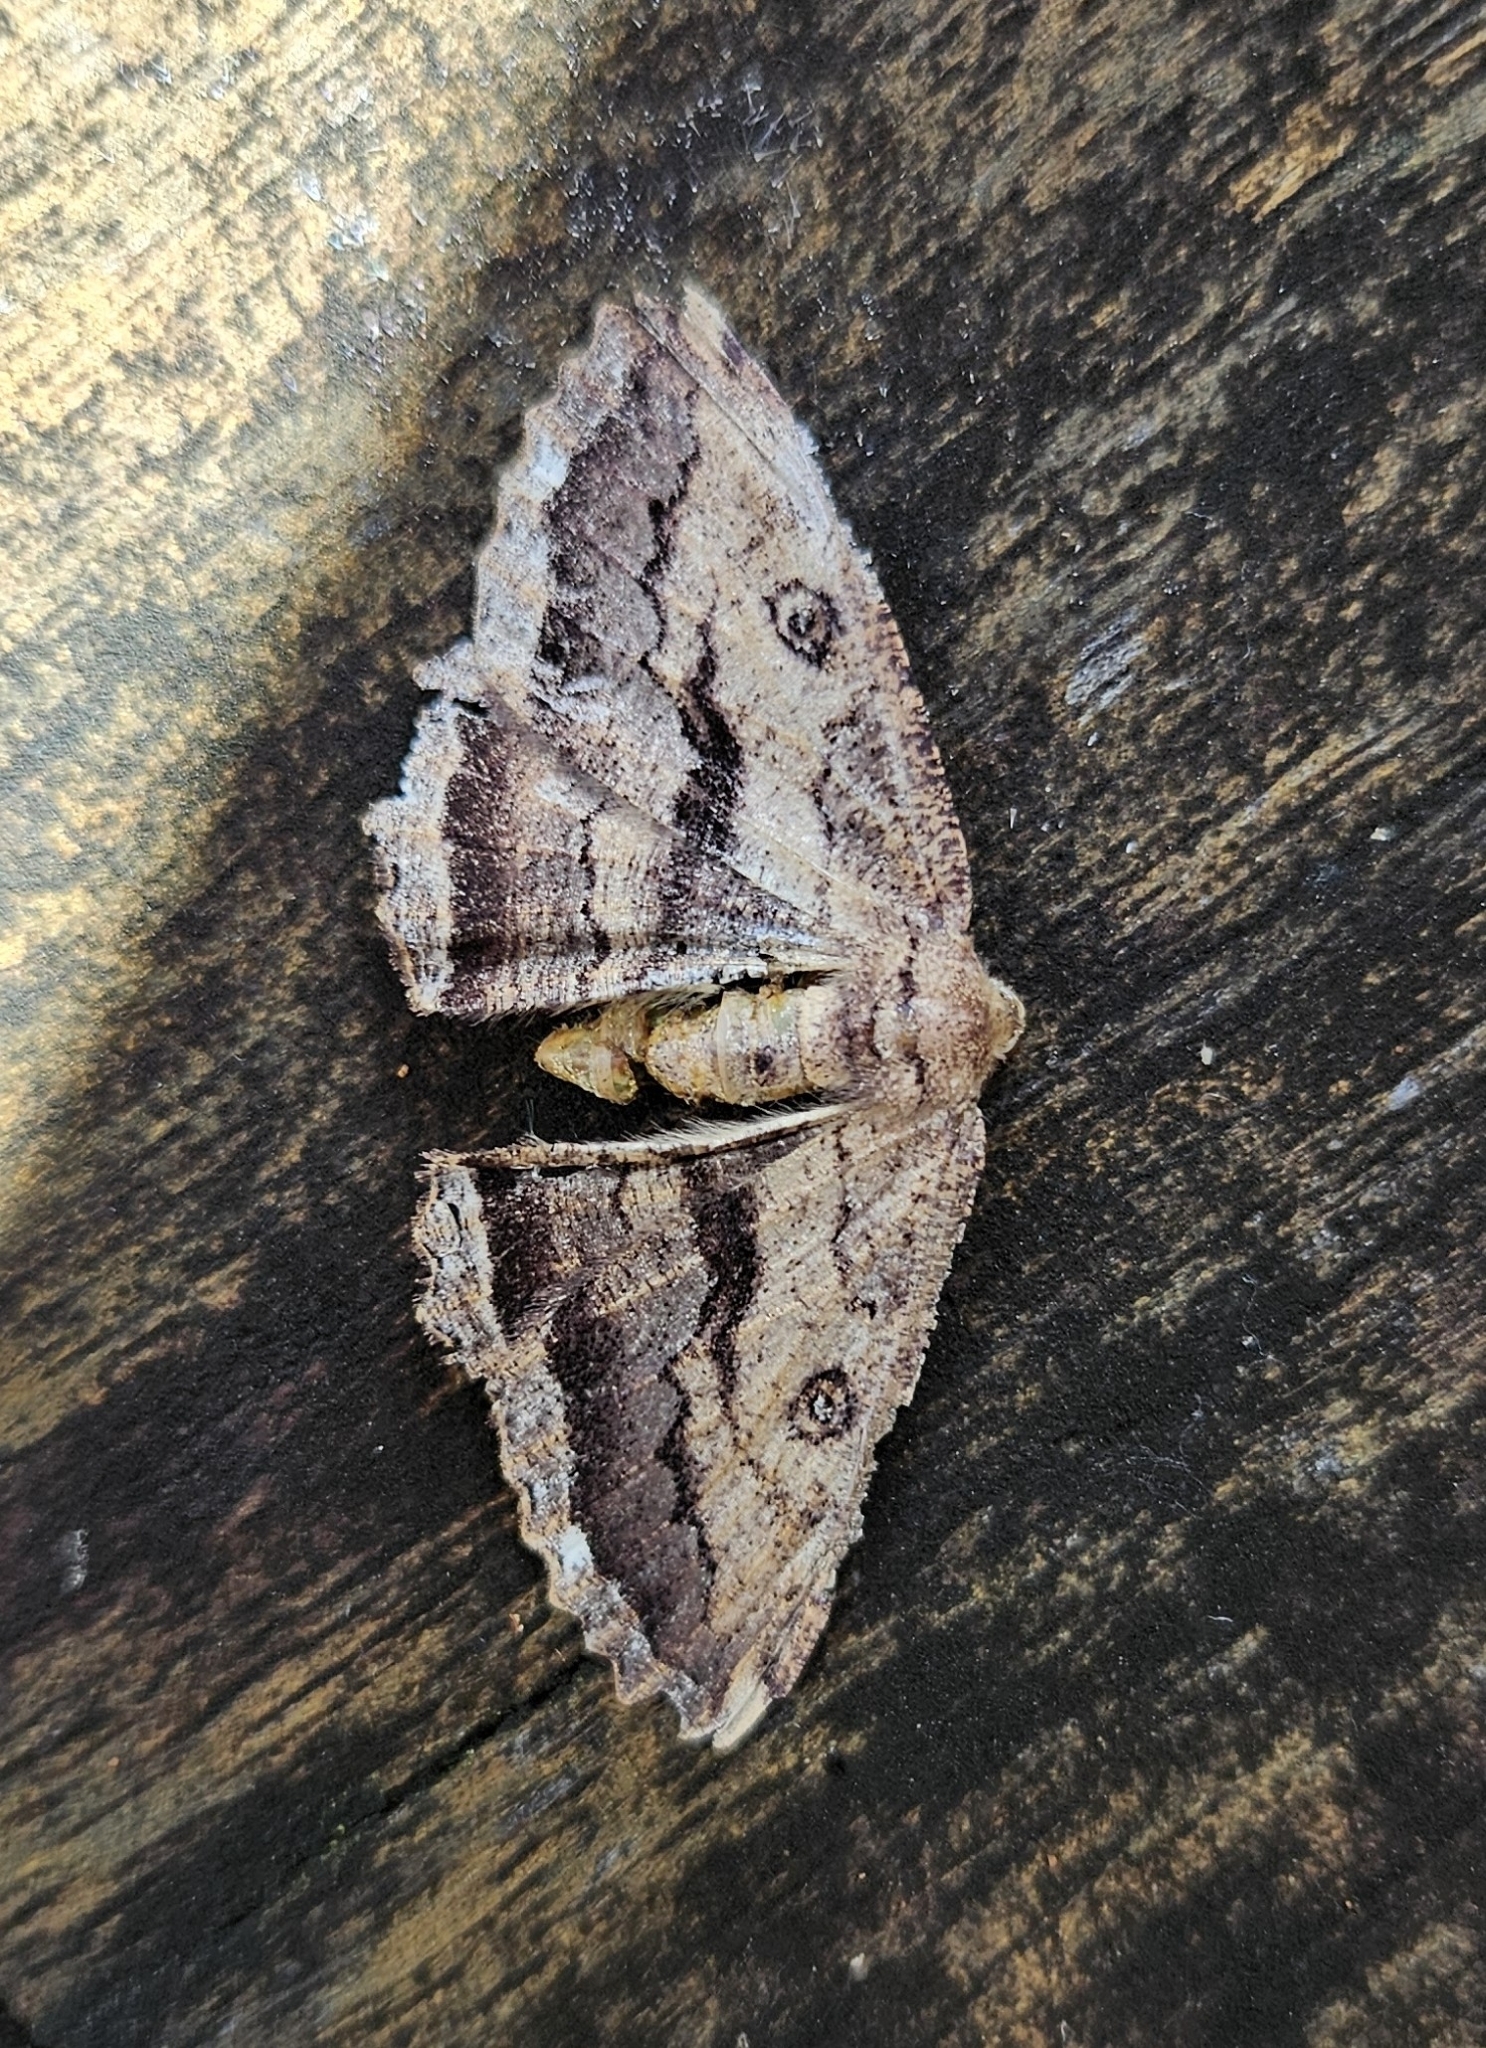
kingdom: Animalia
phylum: Arthropoda
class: Insecta
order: Lepidoptera
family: Geometridae
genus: Gellonia
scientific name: Gellonia dejectaria
